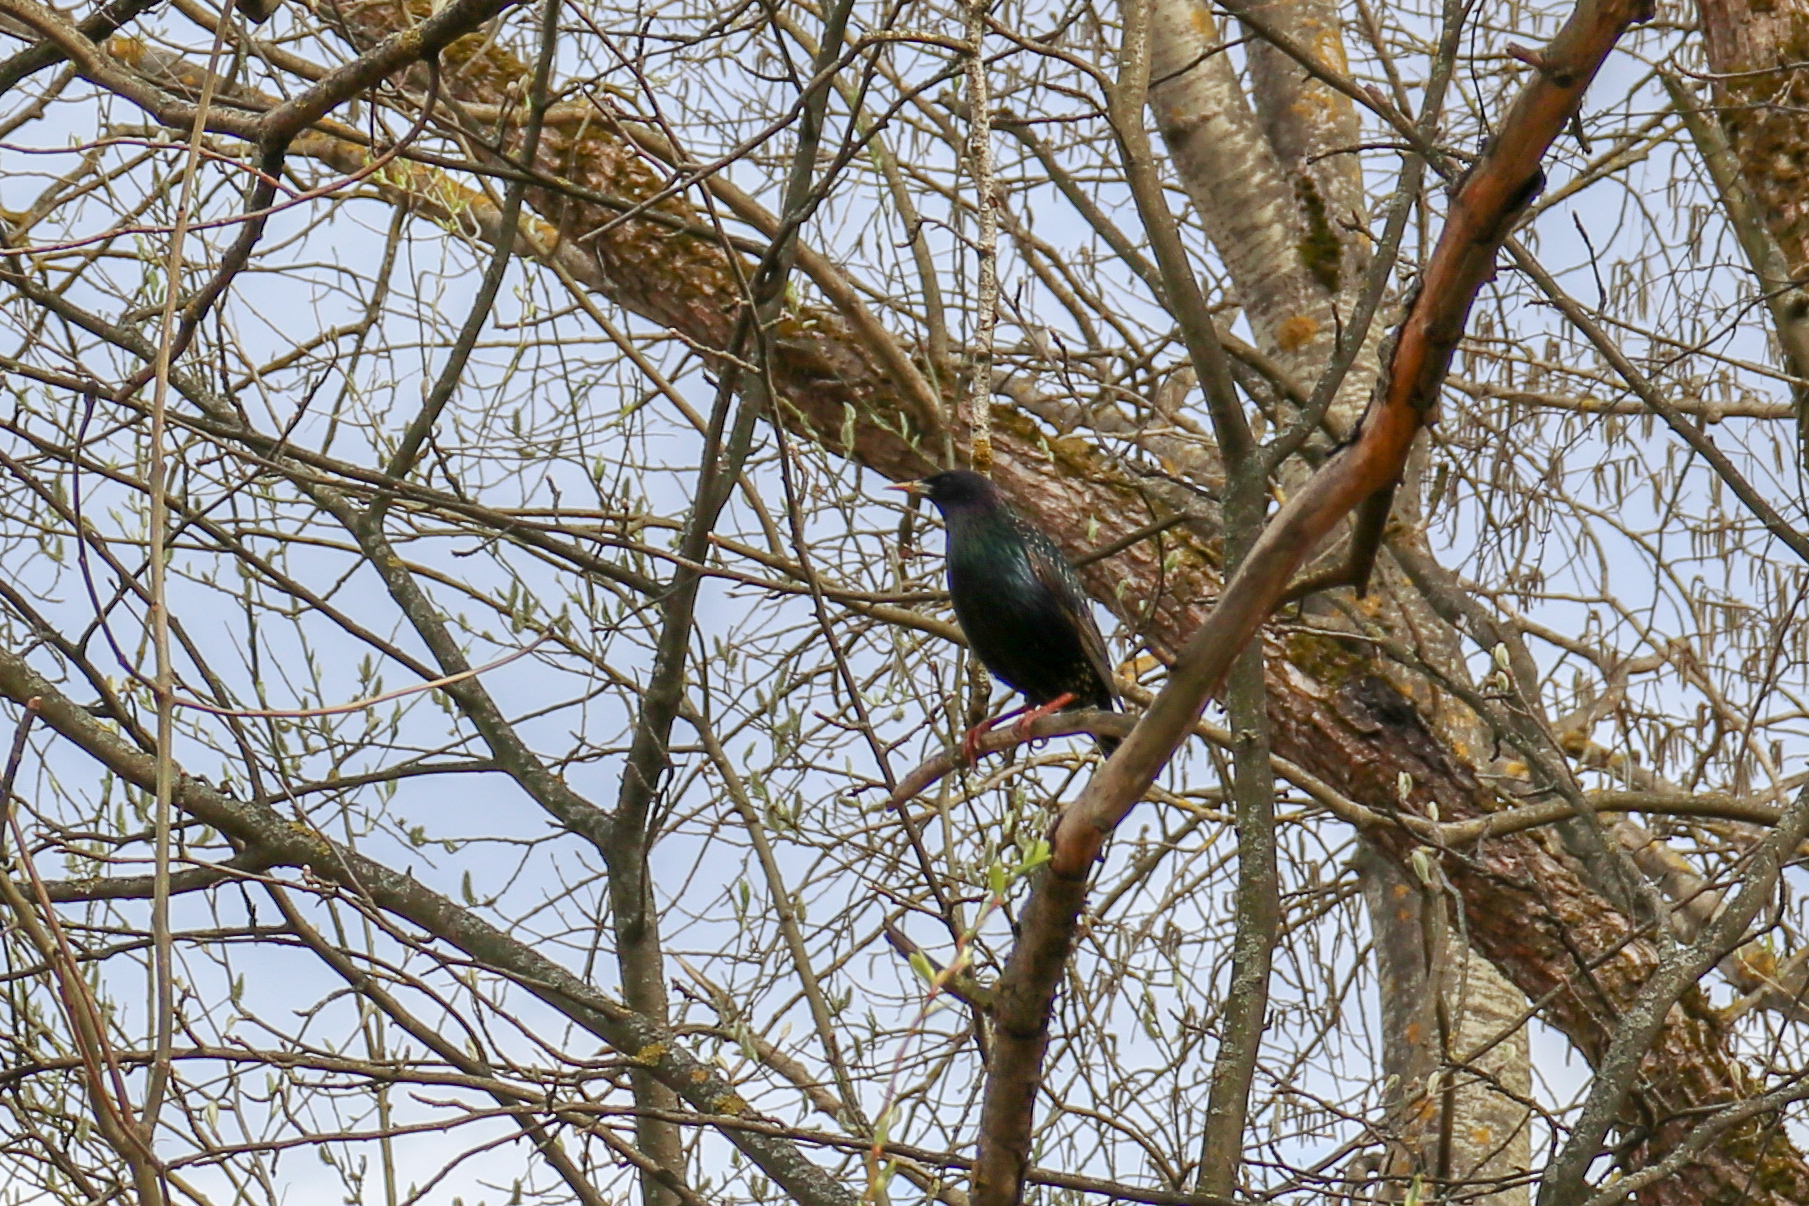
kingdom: Animalia
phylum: Chordata
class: Aves
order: Passeriformes
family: Sturnidae
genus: Sturnus
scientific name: Sturnus vulgaris
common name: Common starling
